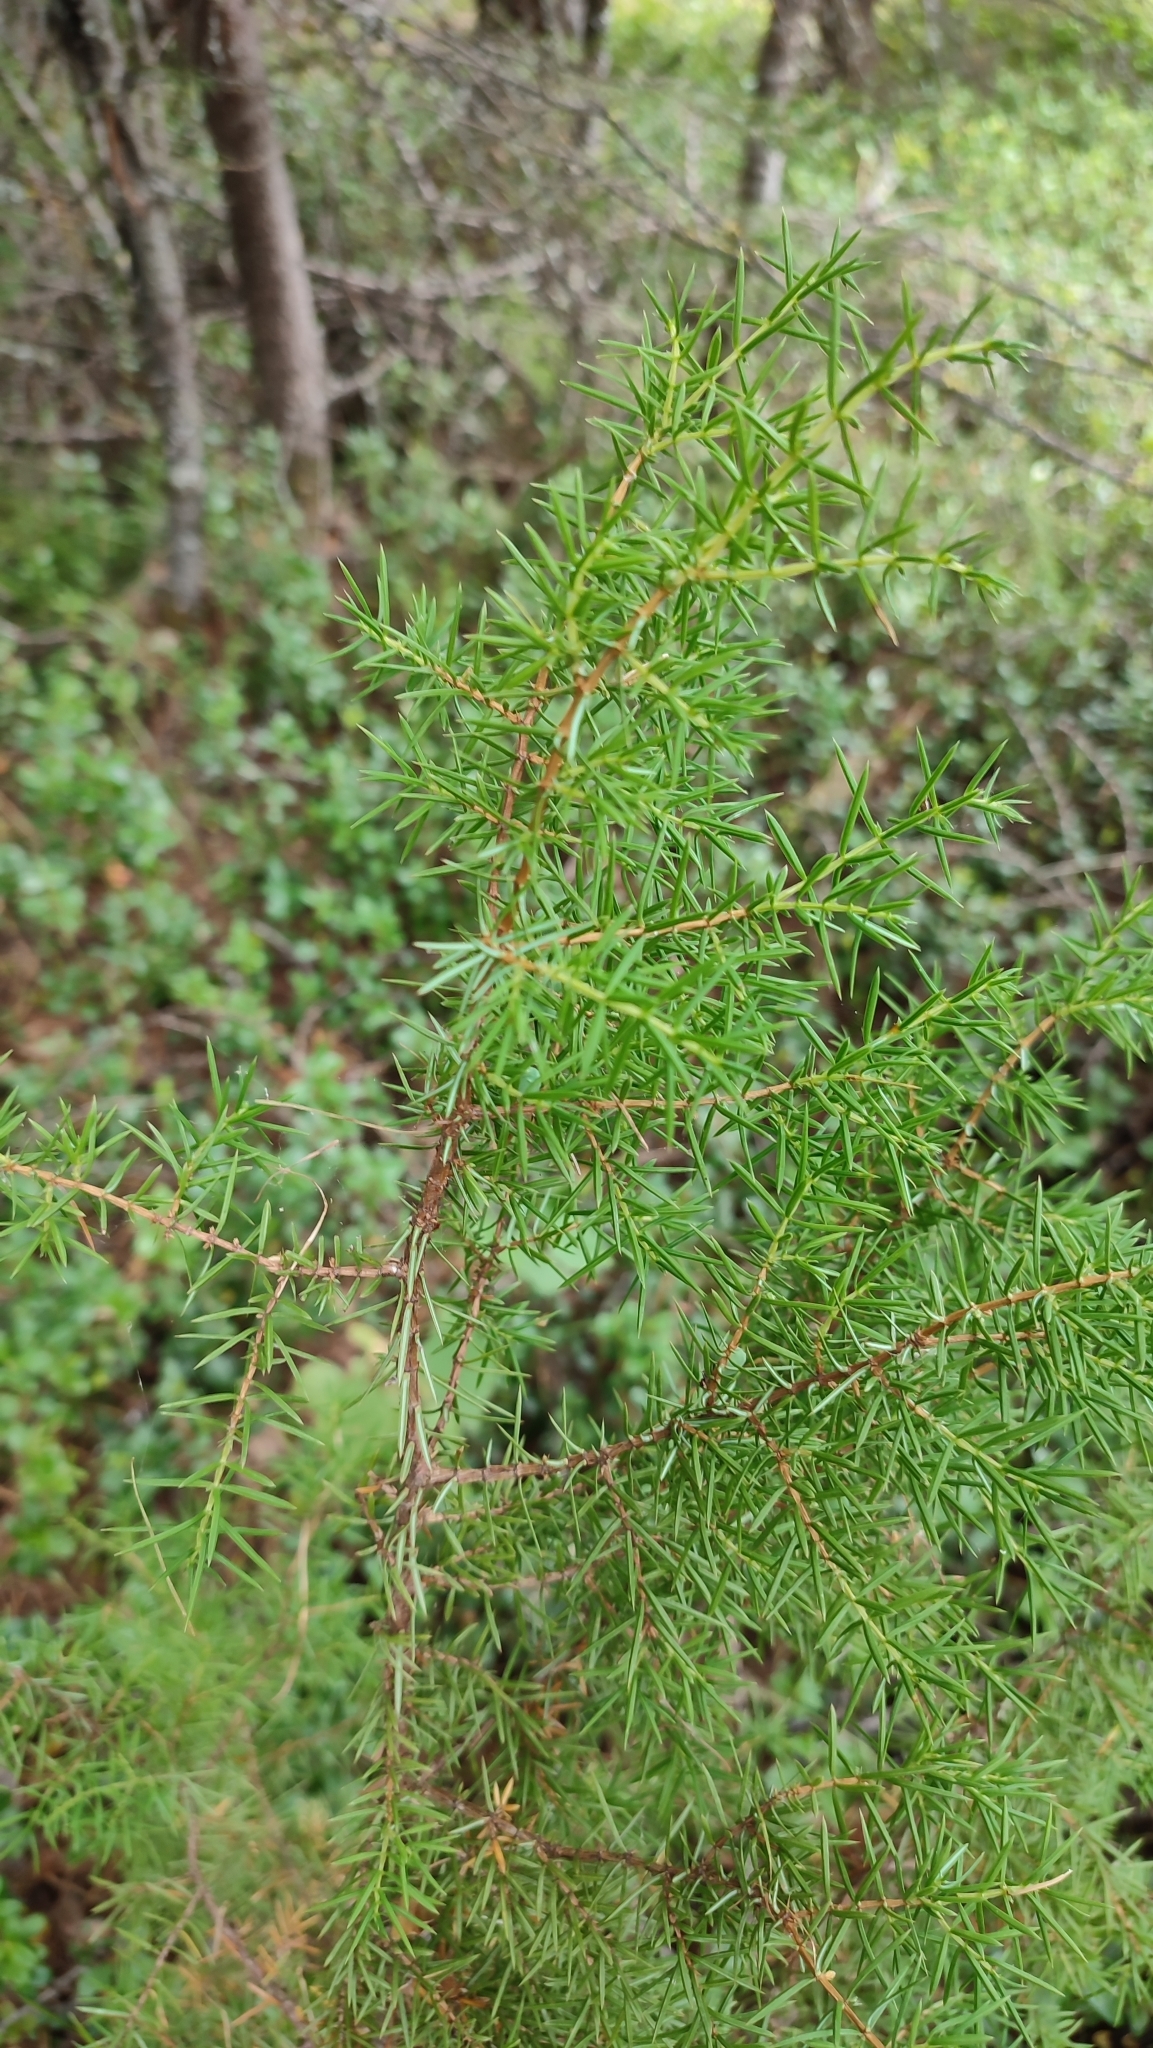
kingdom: Plantae
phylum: Tracheophyta
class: Pinopsida
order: Pinales
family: Cupressaceae
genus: Juniperus
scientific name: Juniperus communis
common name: Common juniper
